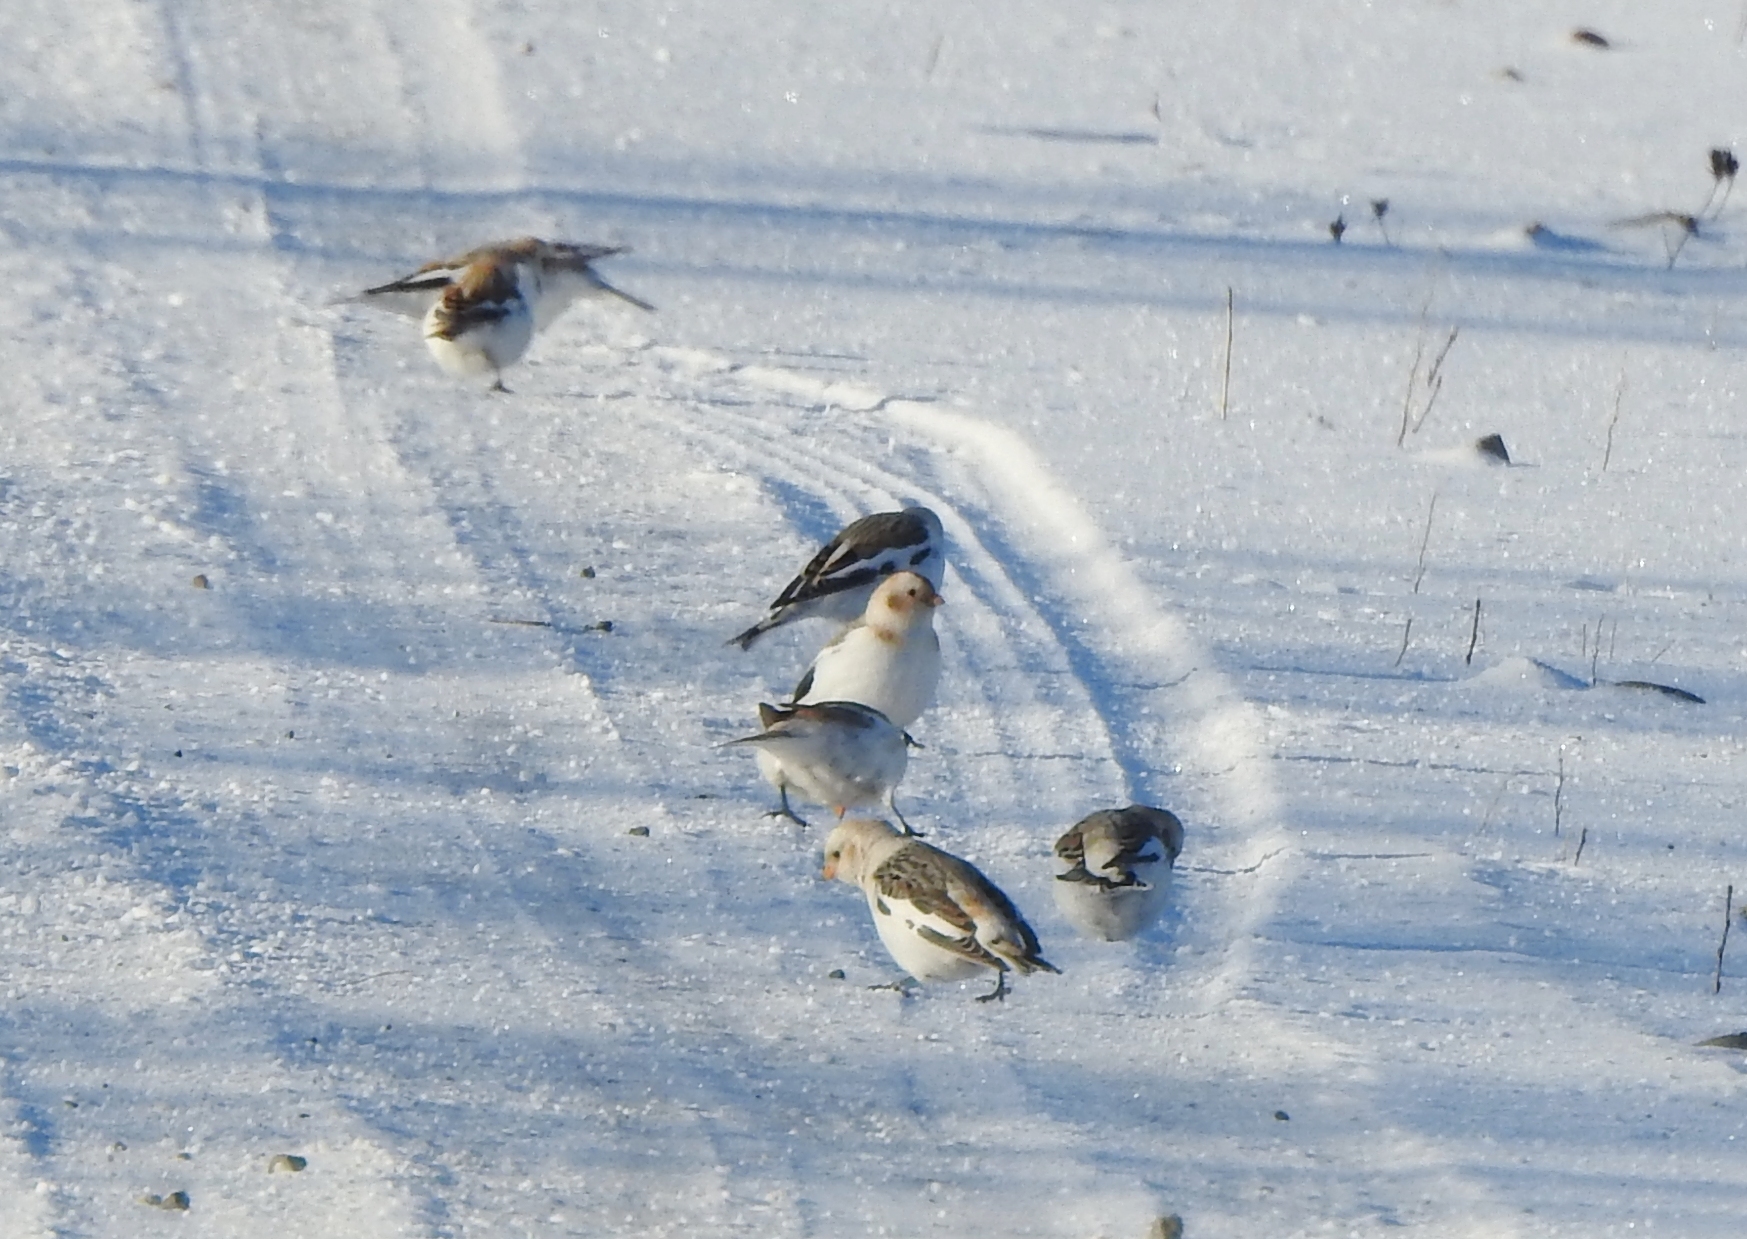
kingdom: Animalia
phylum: Chordata
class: Aves
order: Passeriformes
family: Calcariidae
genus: Plectrophenax
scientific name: Plectrophenax nivalis
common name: Snow bunting
